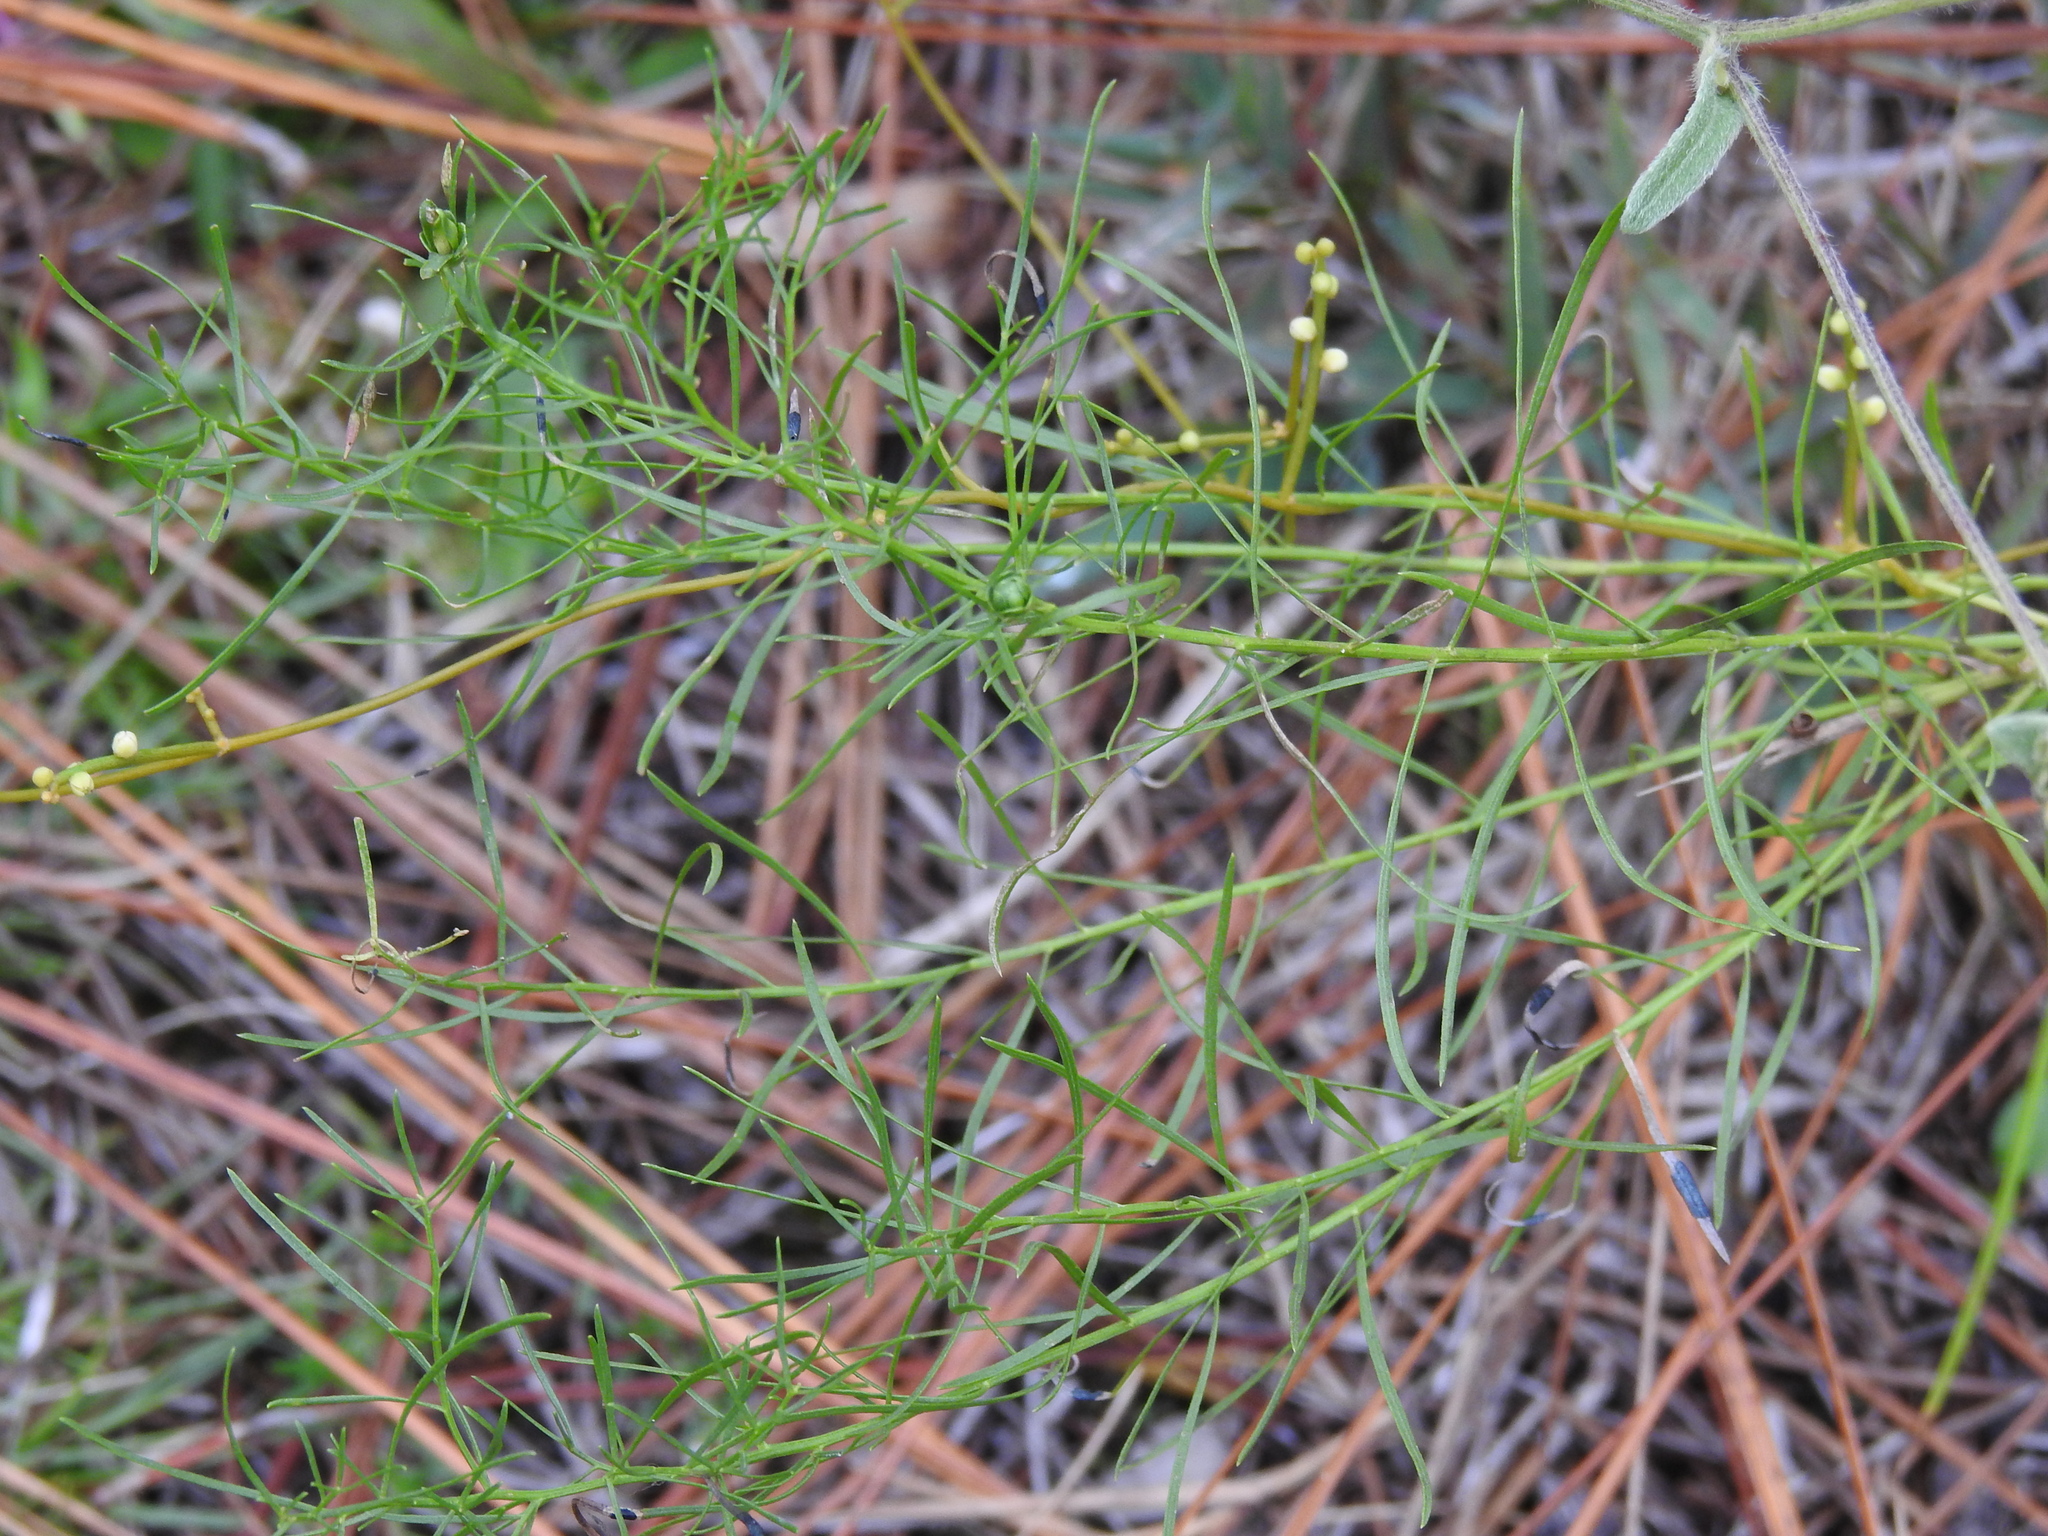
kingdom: Plantae
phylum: Tracheophyta
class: Magnoliopsida
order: Asterales
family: Asteraceae
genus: Euthamia
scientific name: Euthamia caroliniana
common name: Coastal plain goldentop
